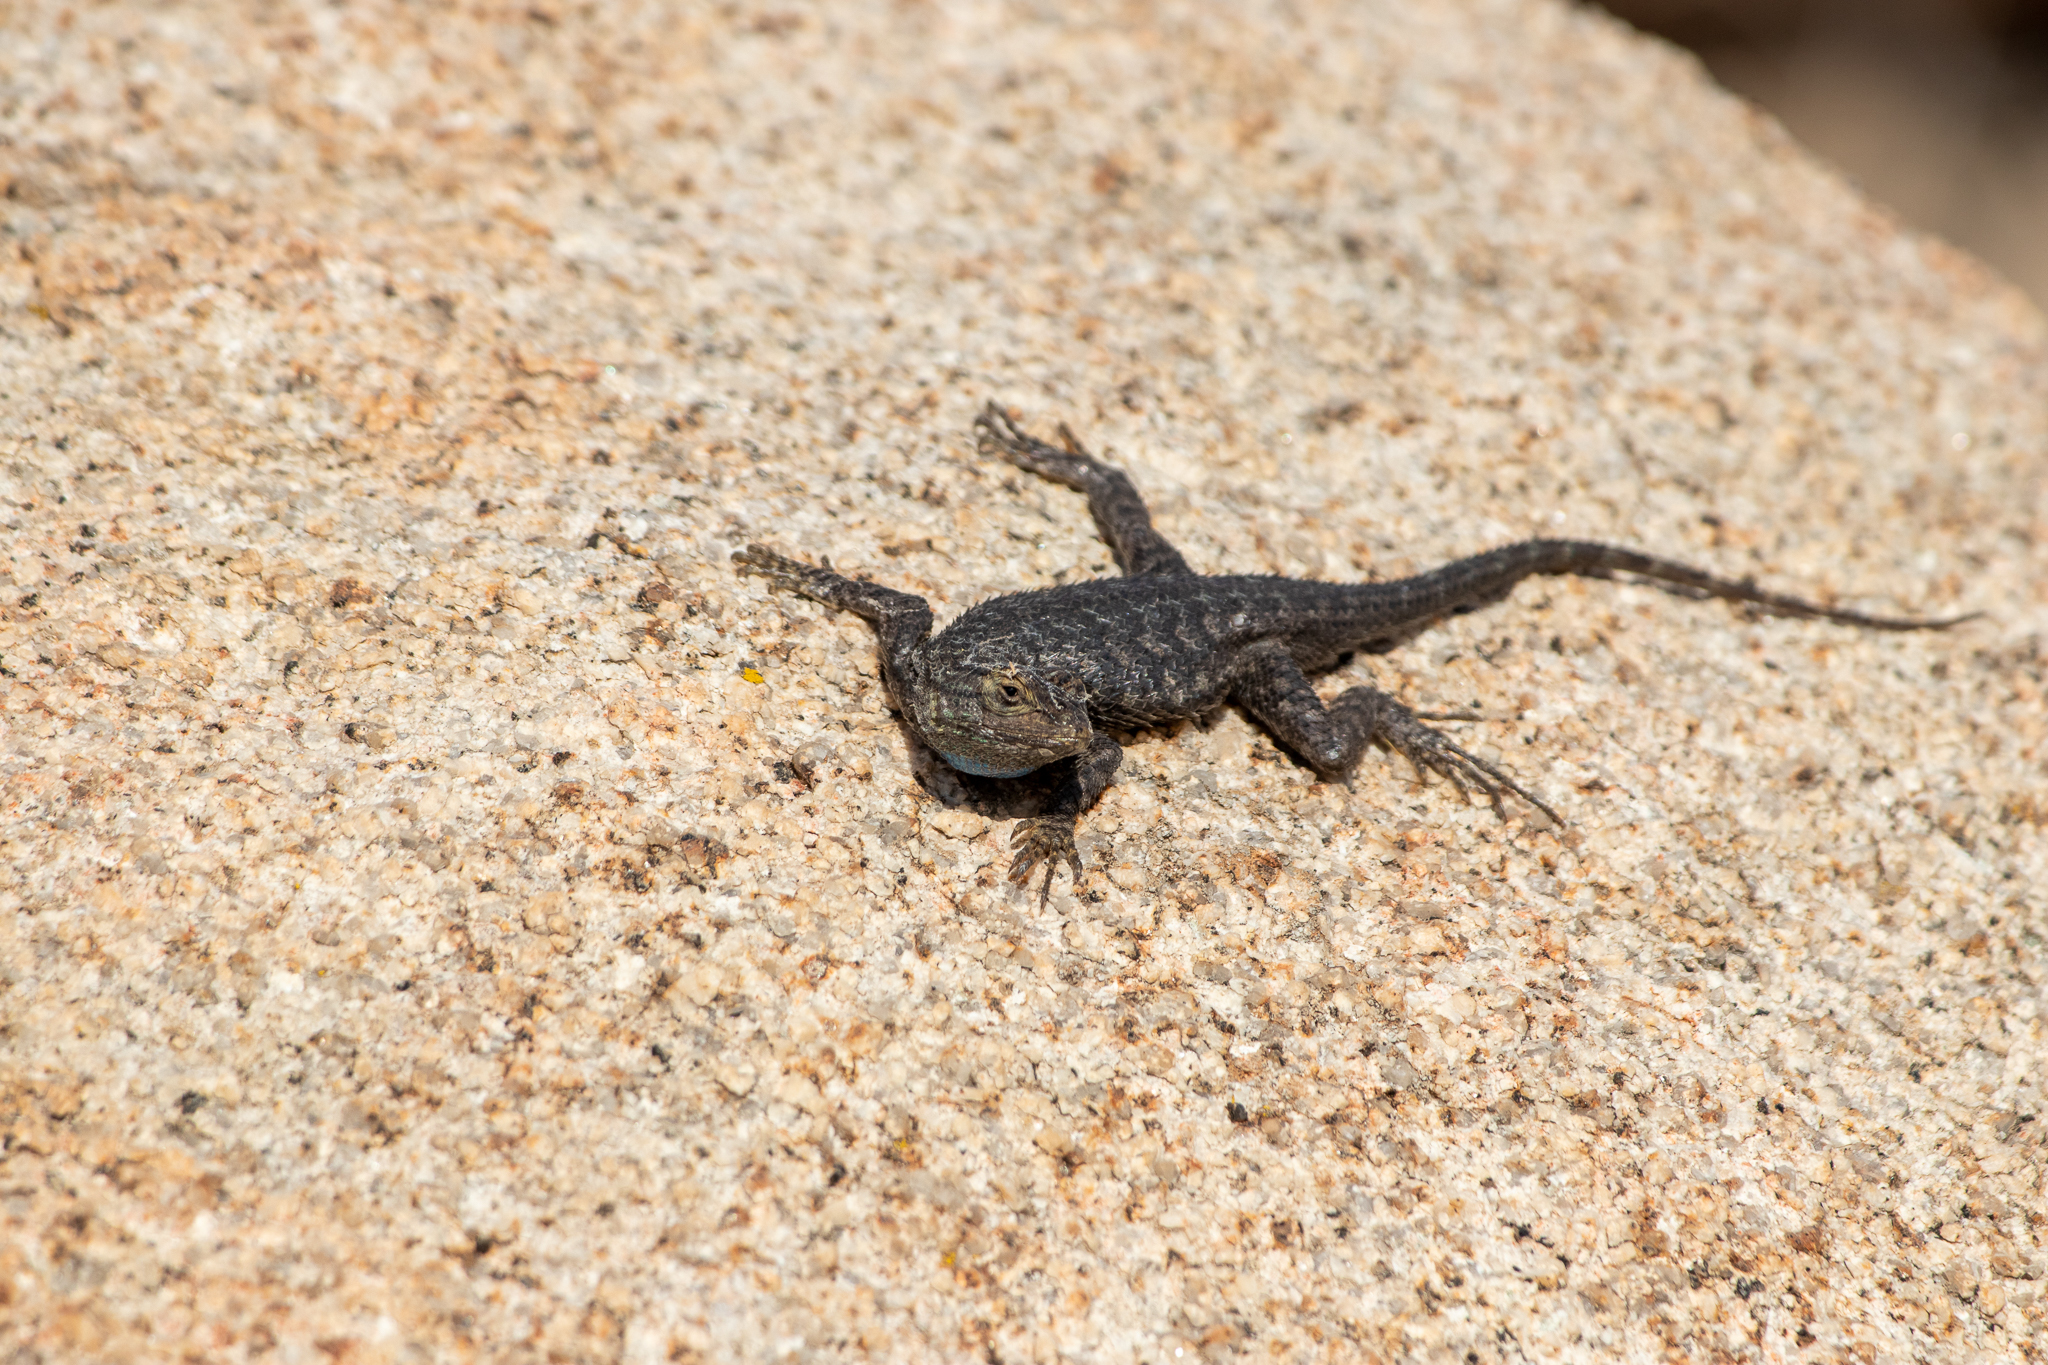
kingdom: Animalia
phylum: Chordata
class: Squamata
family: Phrynosomatidae
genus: Sceloporus
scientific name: Sceloporus occidentalis
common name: Western fence lizard
